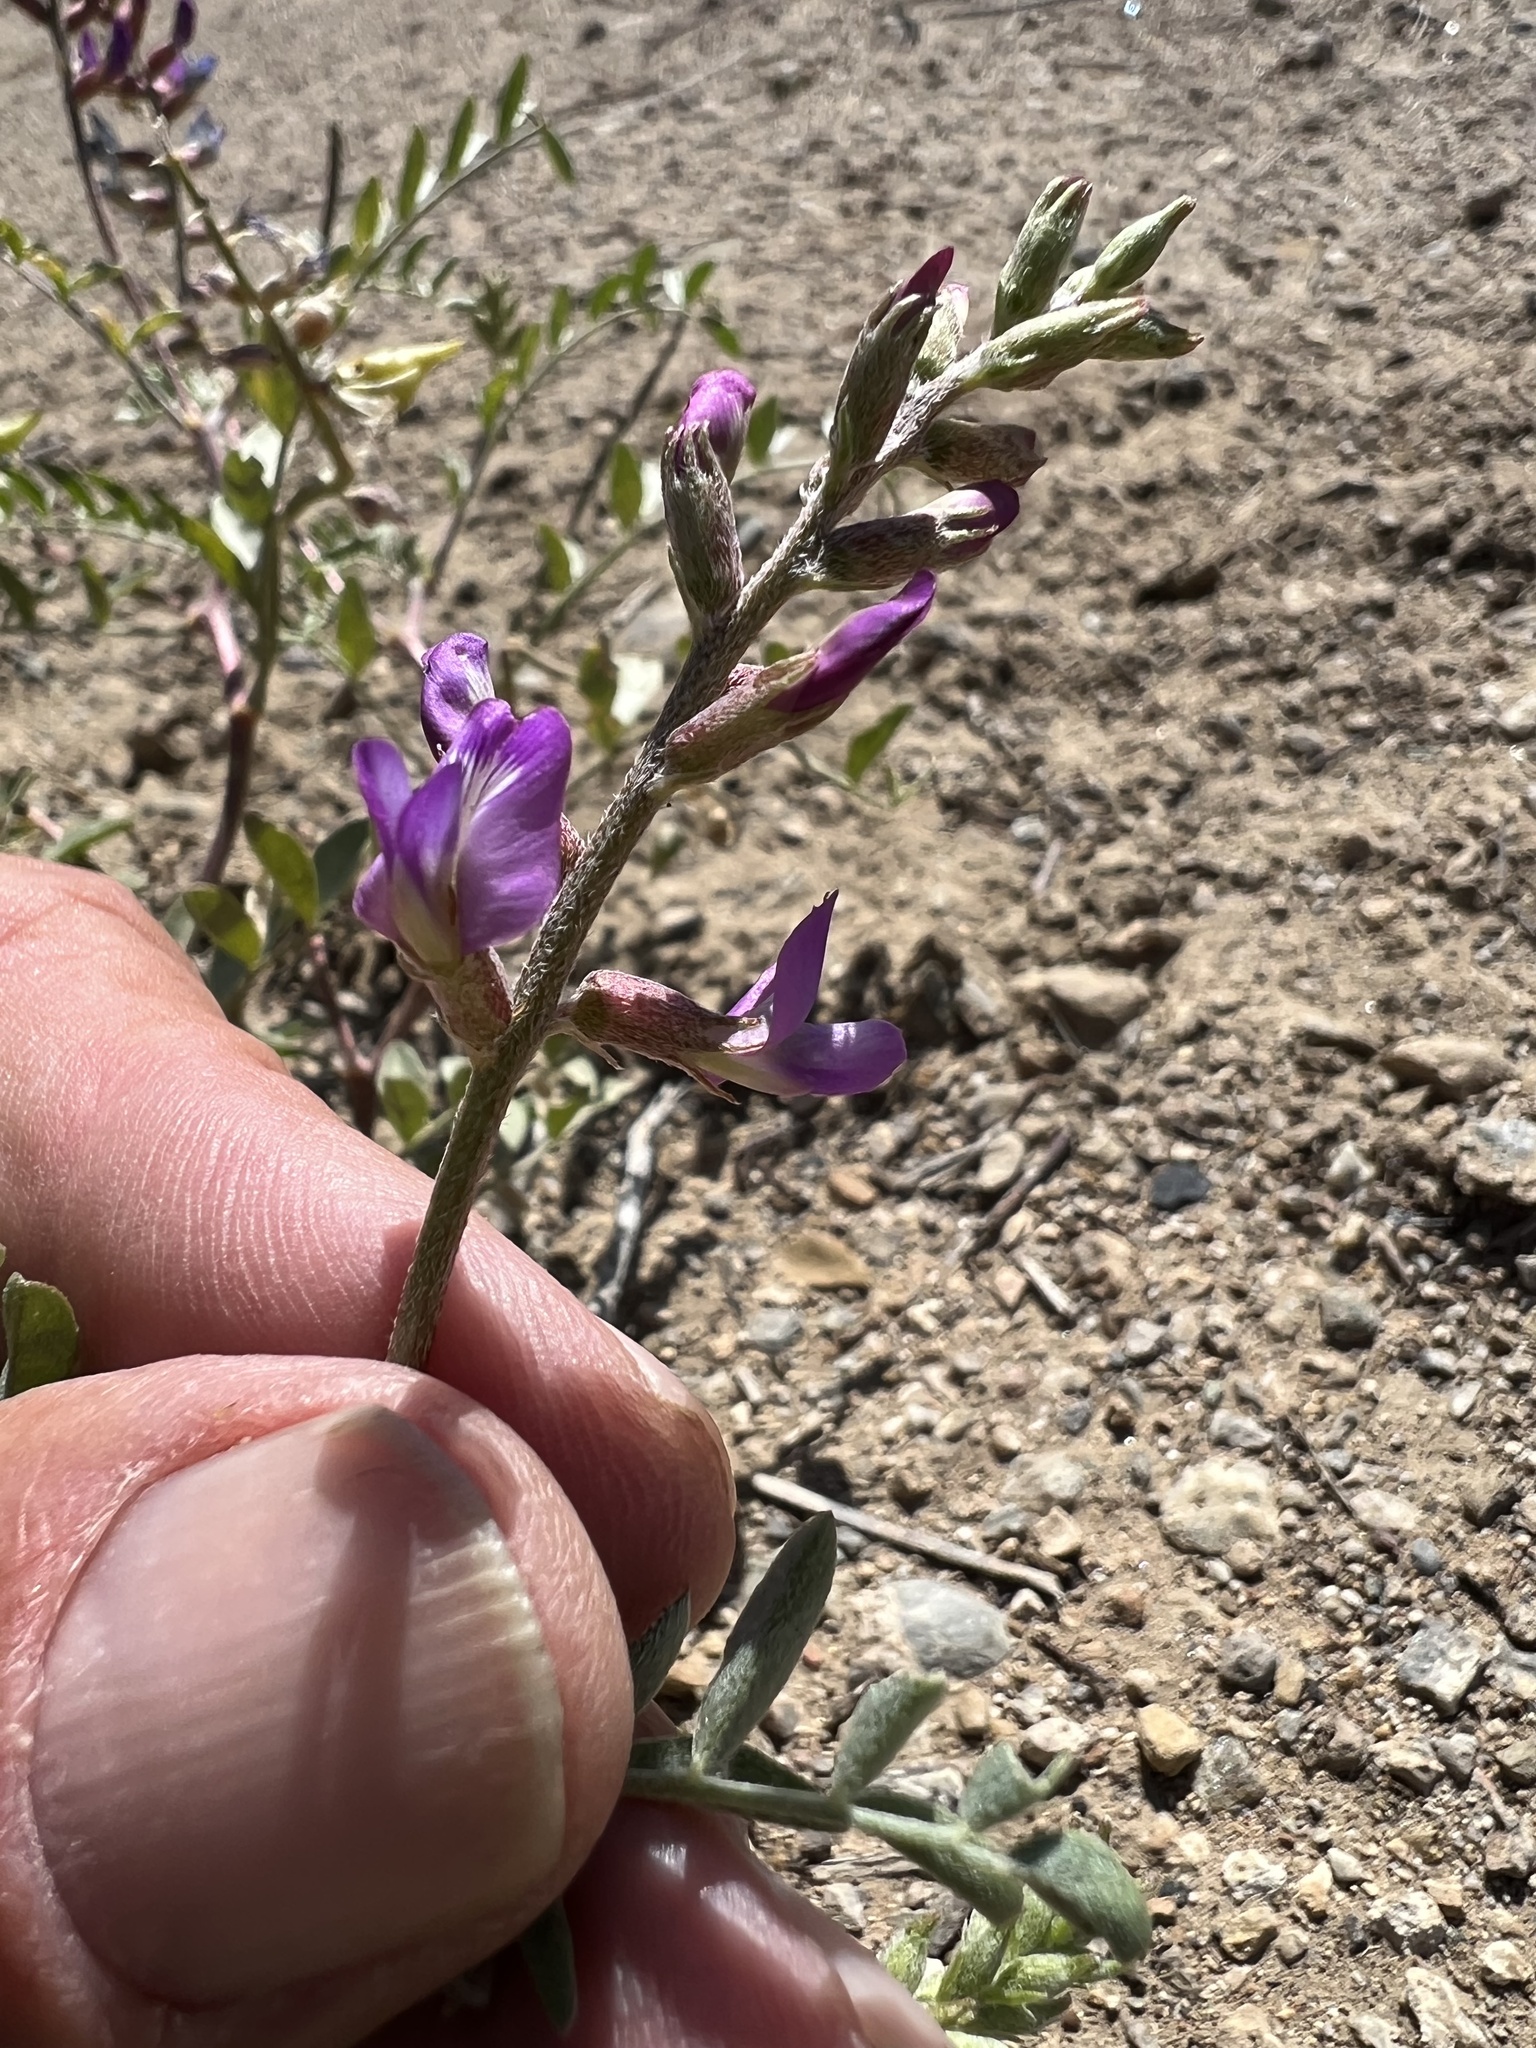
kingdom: Plantae
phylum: Tracheophyta
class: Magnoliopsida
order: Fabales
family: Fabaceae
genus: Astragalus
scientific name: Astragalus lentiginosus
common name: Freckled milkvetch
